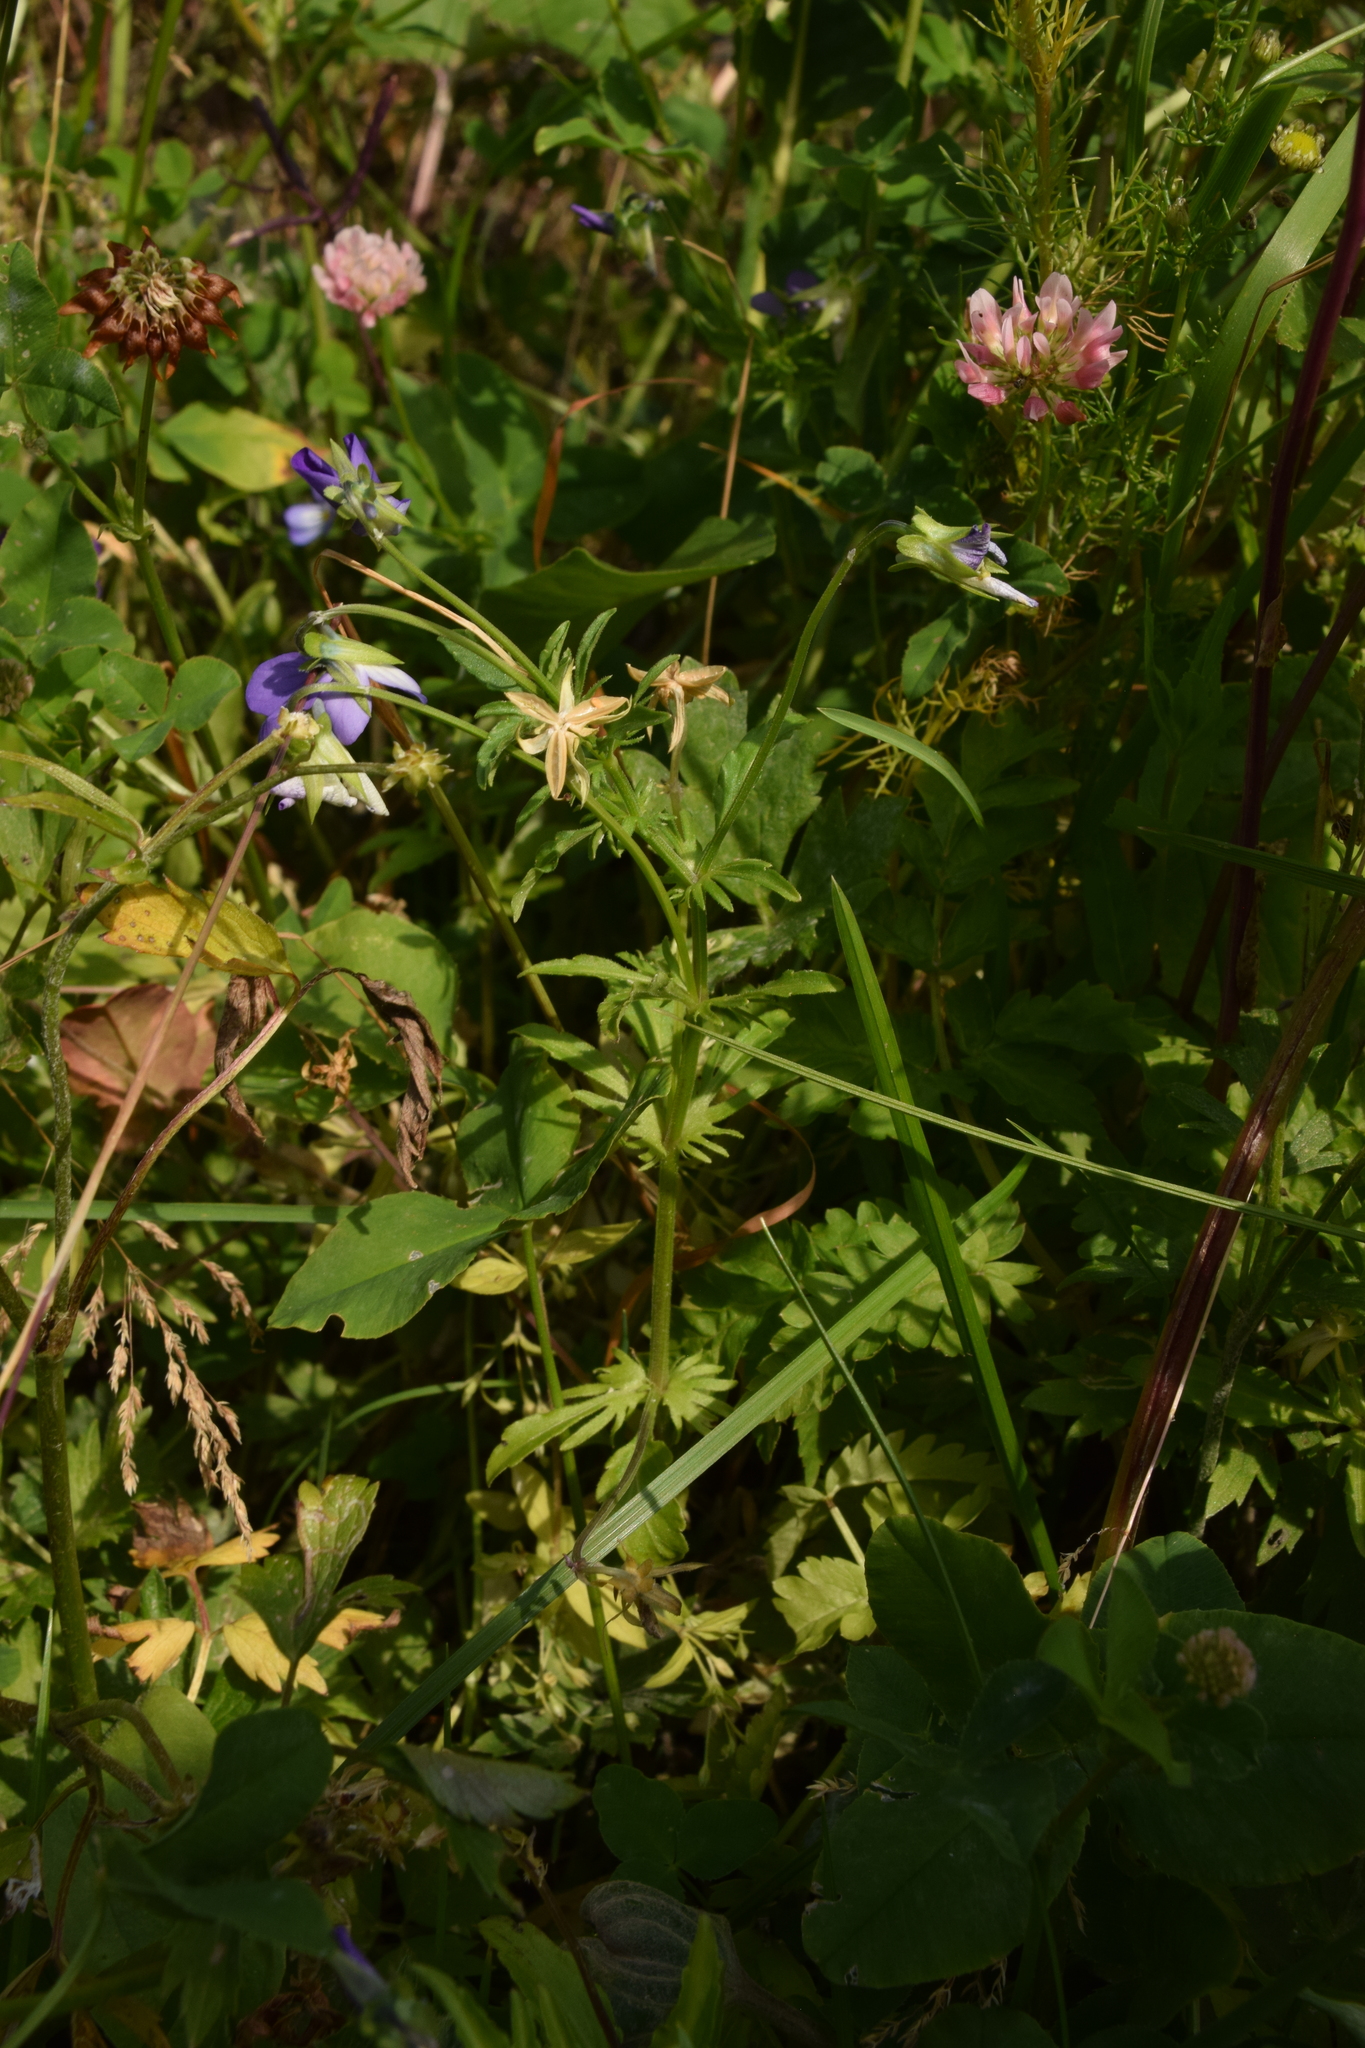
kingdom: Plantae
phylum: Tracheophyta
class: Magnoliopsida
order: Malpighiales
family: Violaceae
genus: Viola
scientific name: Viola tricolor
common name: Pansy
